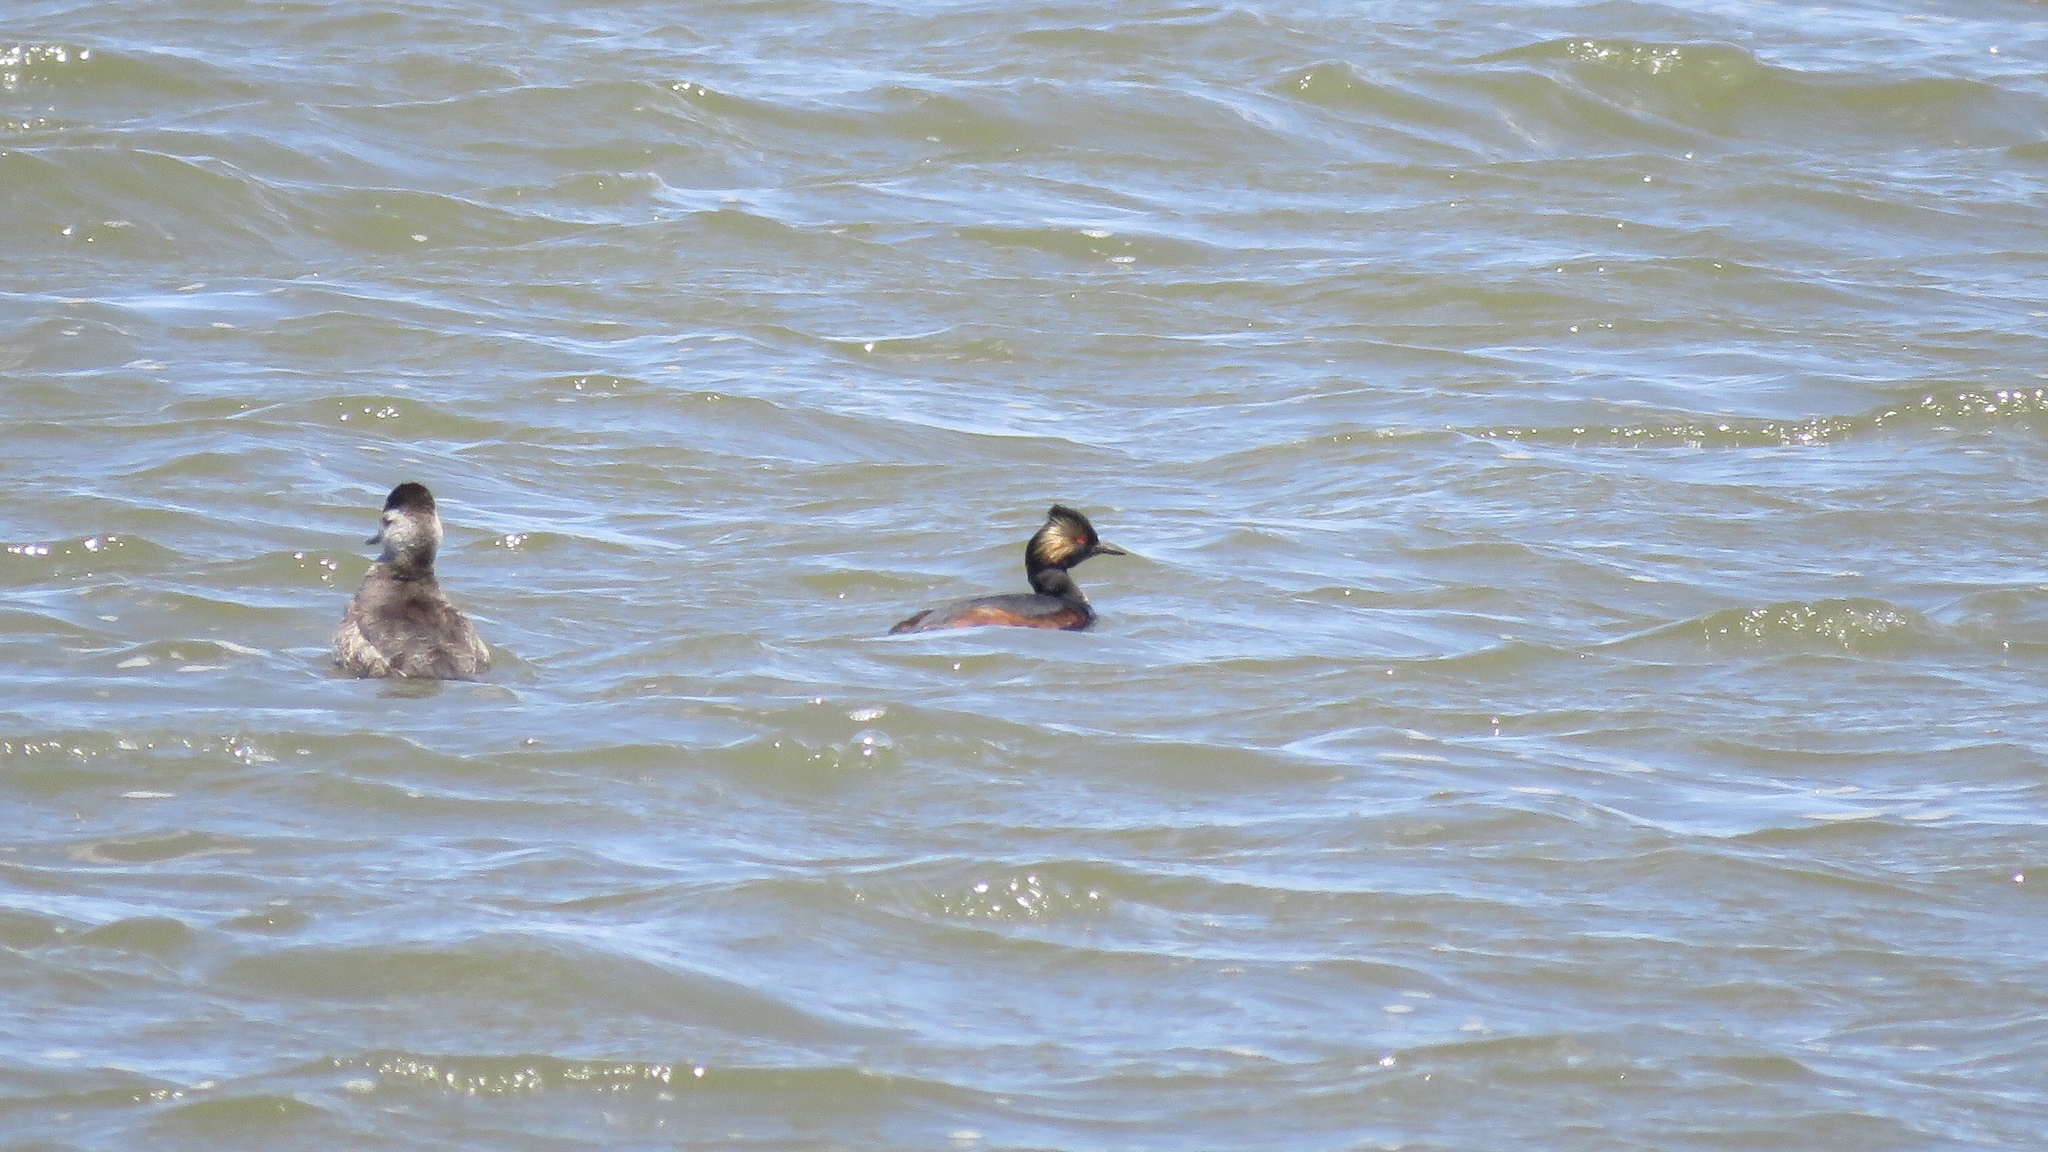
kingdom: Animalia
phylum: Chordata
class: Aves
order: Podicipediformes
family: Podicipedidae
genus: Podiceps
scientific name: Podiceps nigricollis
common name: Black-necked grebe
